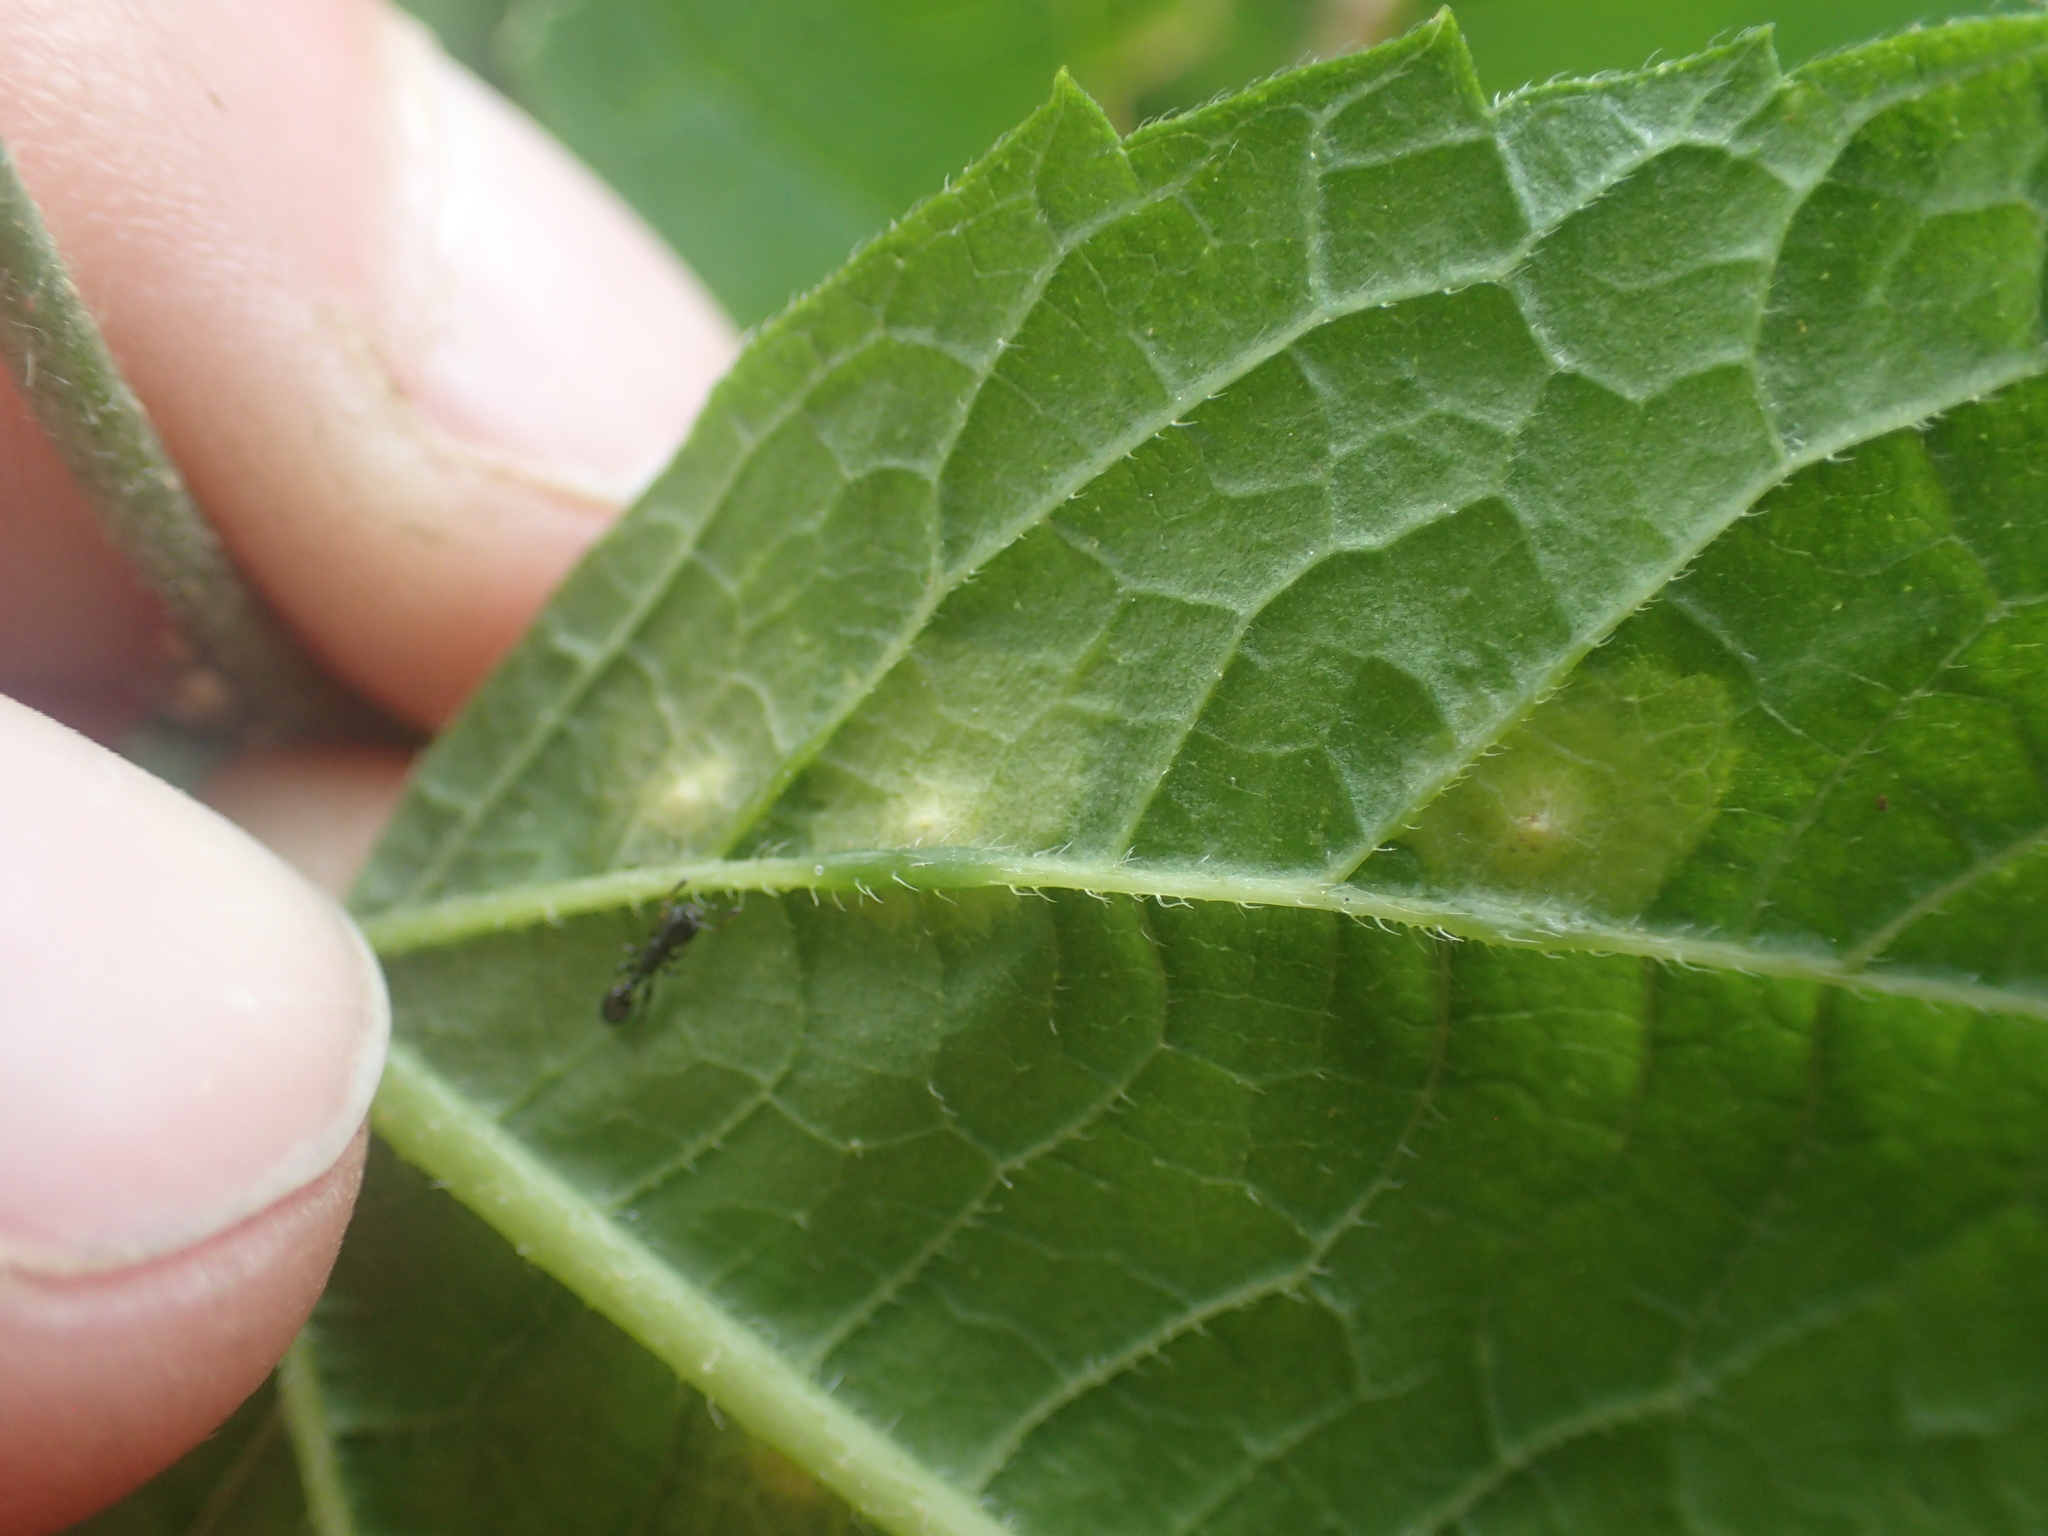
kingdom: Animalia
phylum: Arthropoda
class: Insecta
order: Hemiptera
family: Aphalaridae
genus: Pachypsylla
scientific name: Pachypsylla celtidisvesicula
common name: Hackberry blister gall psyllid
